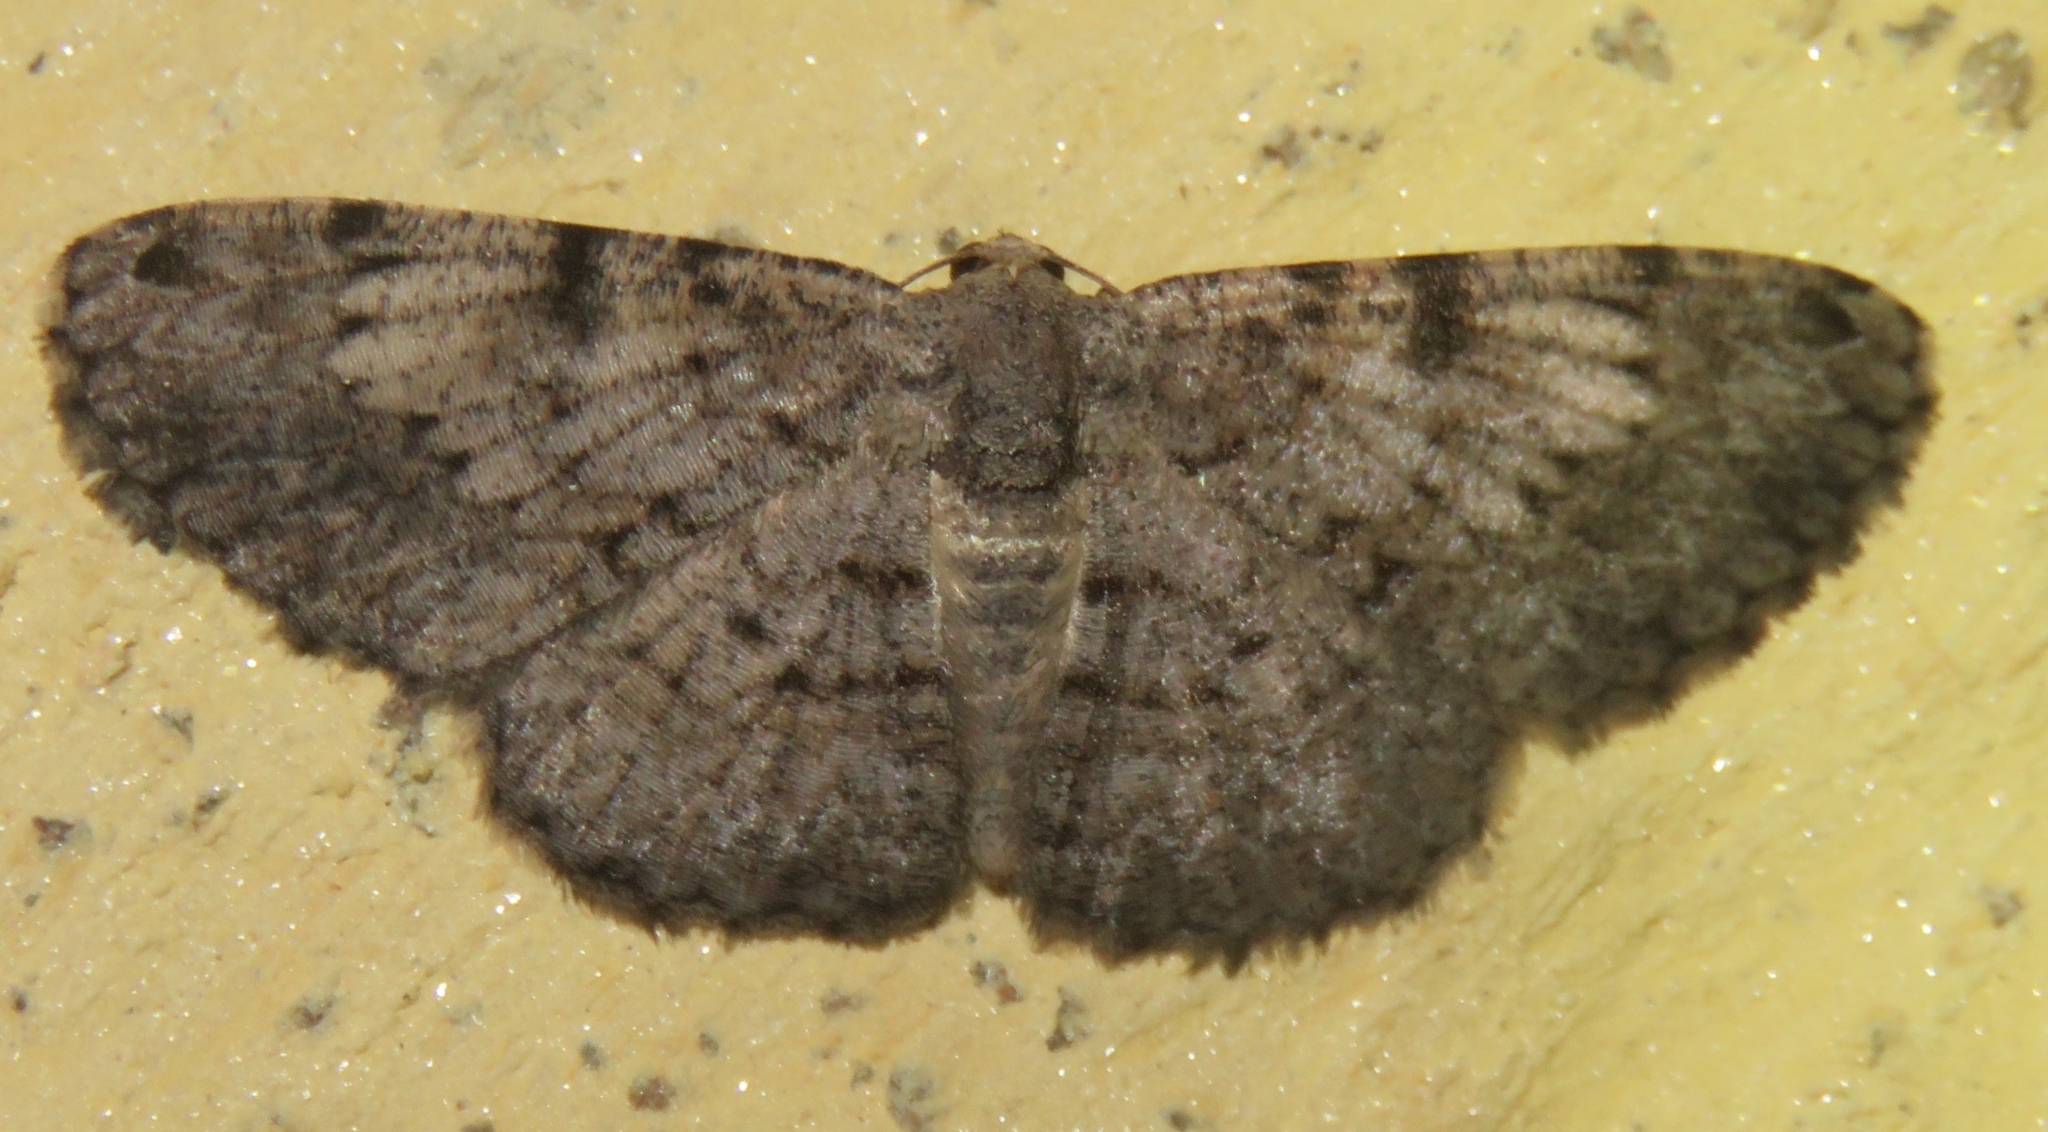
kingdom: Animalia
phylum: Arthropoda
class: Insecta
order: Lepidoptera
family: Geometridae
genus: Ectropidia
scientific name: Ectropidia shoreae
